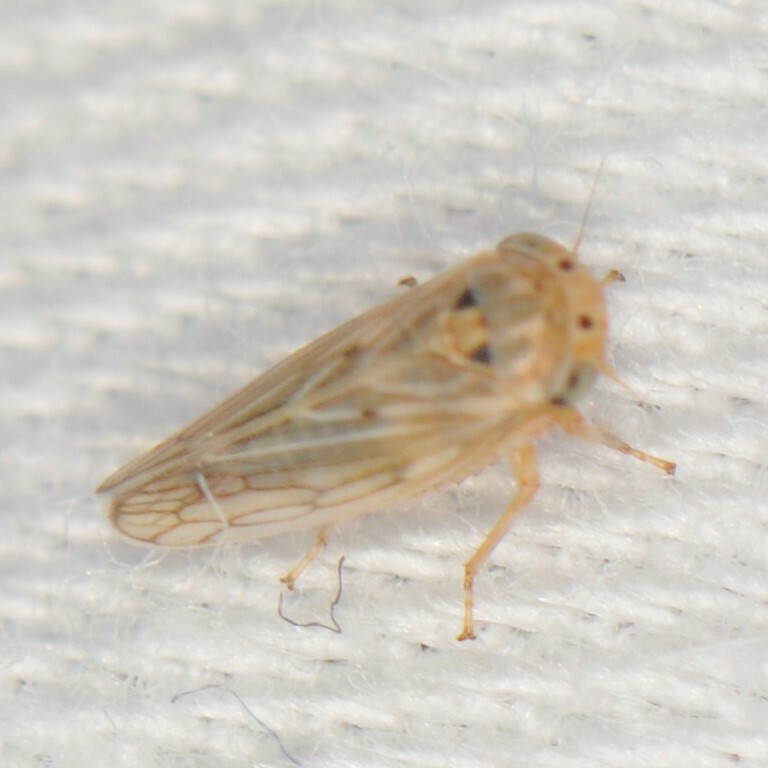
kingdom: Animalia
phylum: Arthropoda
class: Insecta
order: Hemiptera
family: Cicadellidae
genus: Ceratagallia
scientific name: Ceratagallia
